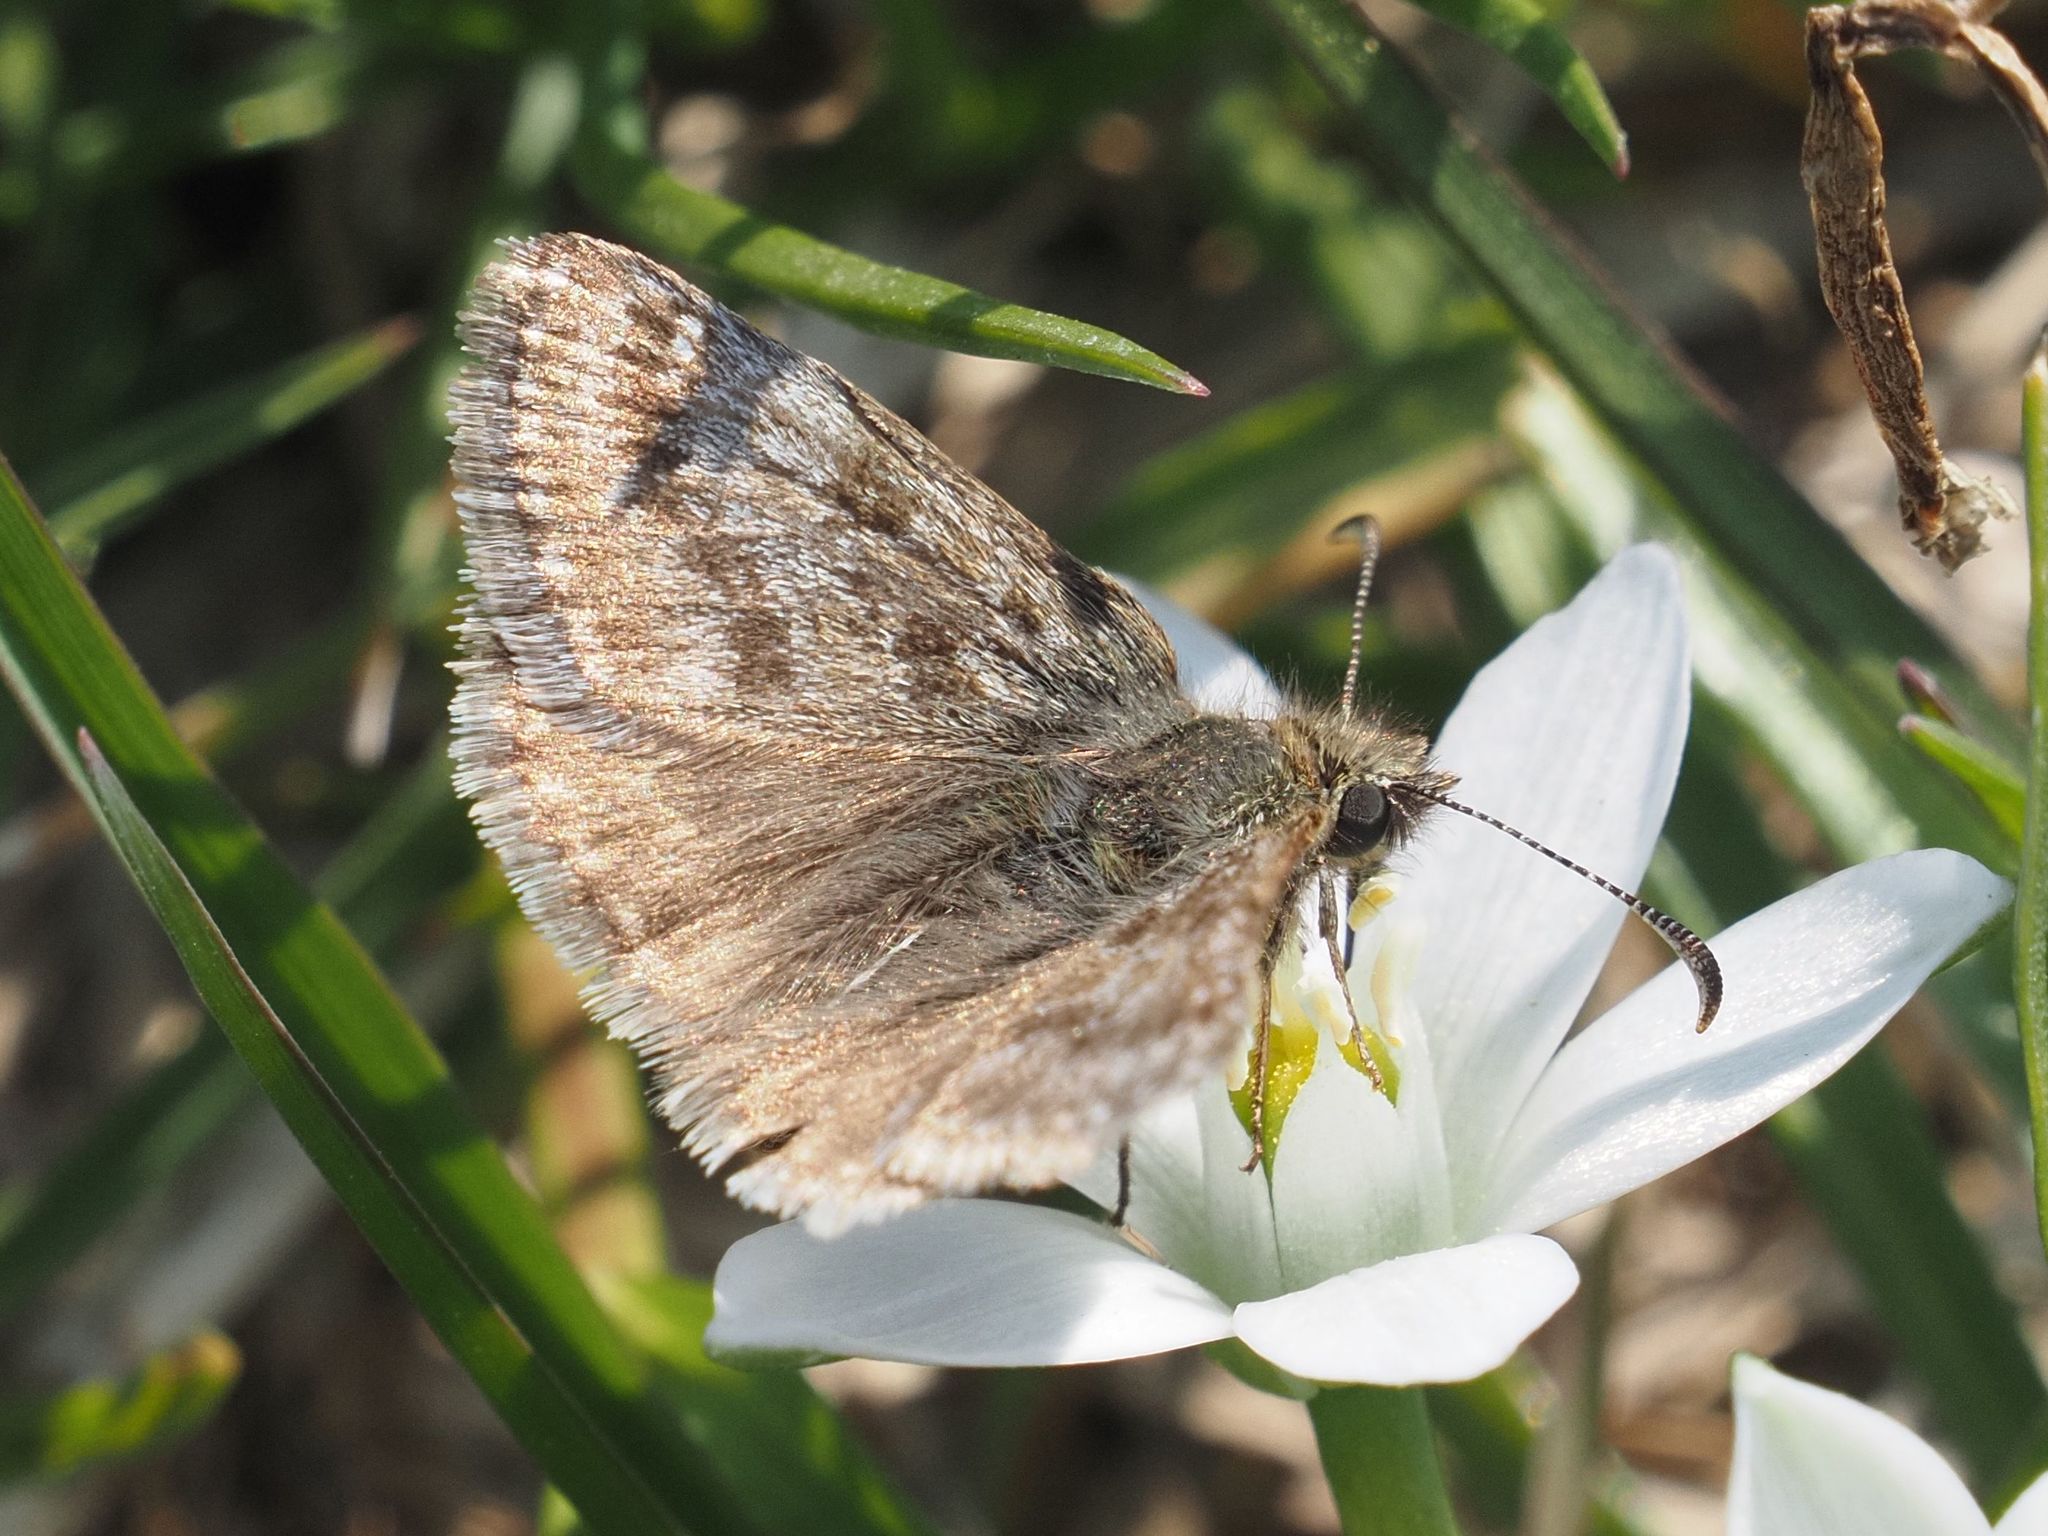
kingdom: Animalia
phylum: Arthropoda
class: Insecta
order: Lepidoptera
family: Hesperiidae
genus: Erynnis
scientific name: Erynnis tages
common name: Dingy skipper
